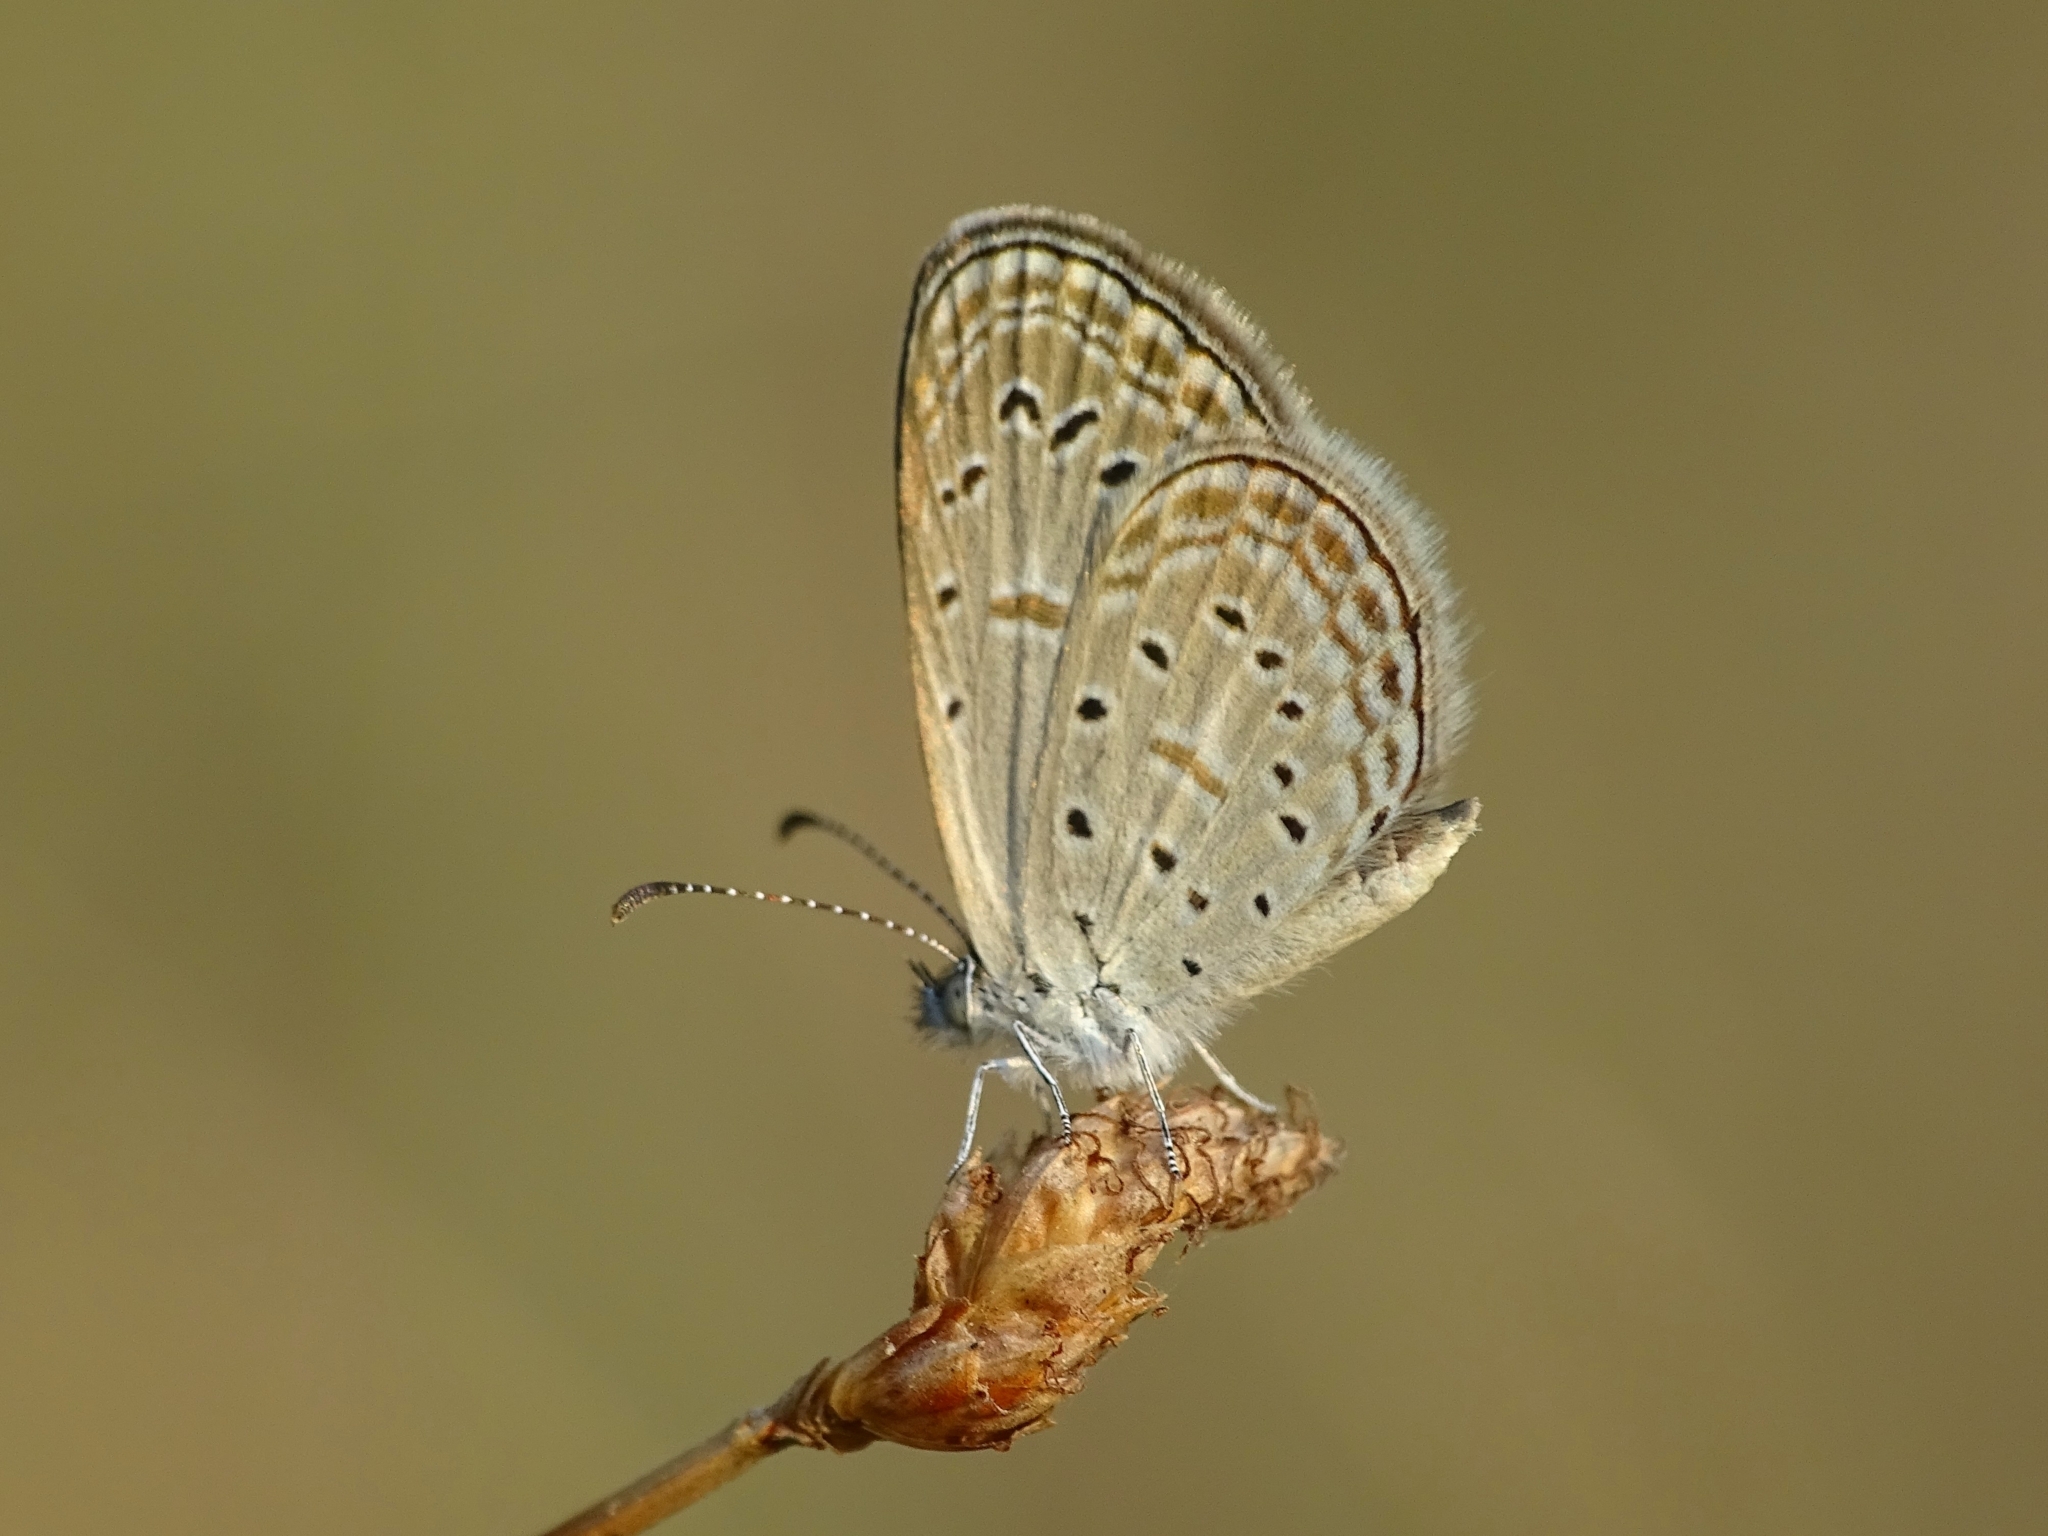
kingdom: Animalia
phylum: Arthropoda
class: Insecta
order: Lepidoptera
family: Lycaenidae
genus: Zizula
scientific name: Zizula hylax
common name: Gaika blue
